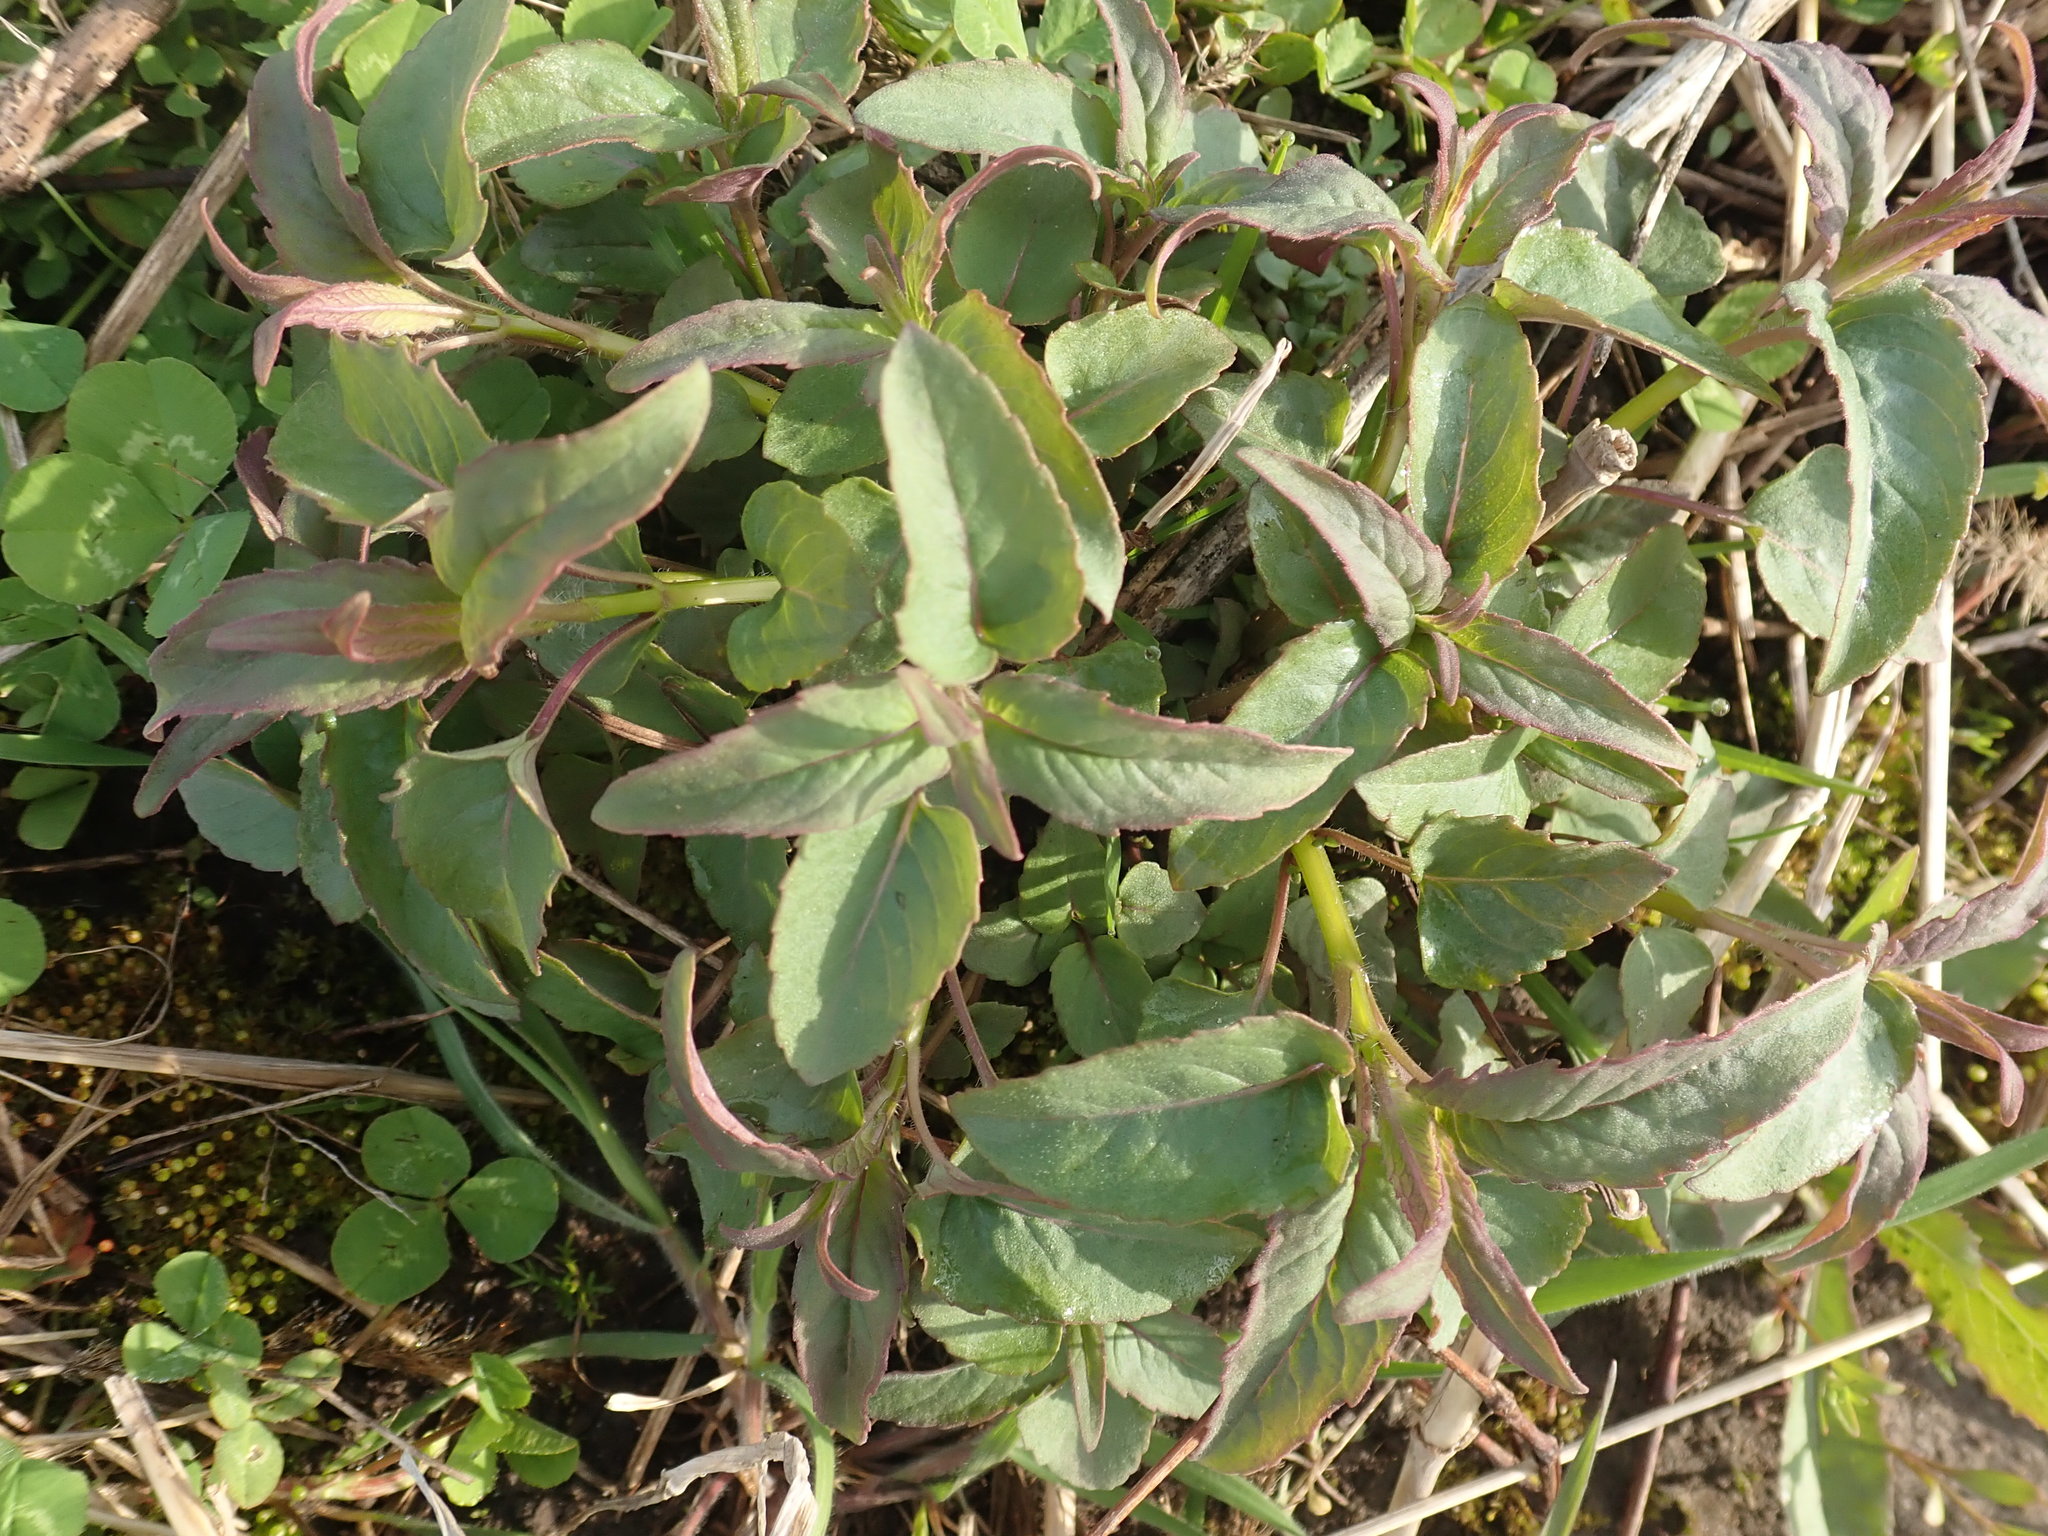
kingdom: Plantae
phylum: Tracheophyta
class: Magnoliopsida
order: Lamiales
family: Lamiaceae
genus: Monarda
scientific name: Monarda fistulosa
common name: Purple beebalm
